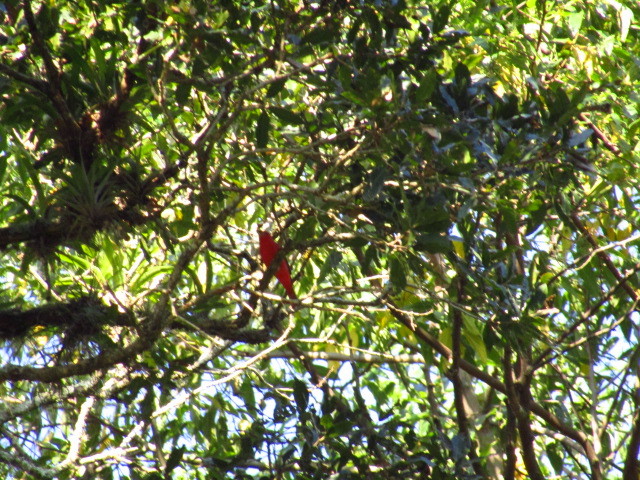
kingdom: Animalia
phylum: Chordata
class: Aves
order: Passeriformes
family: Cardinalidae
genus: Piranga
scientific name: Piranga rubra
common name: Summer tanager
